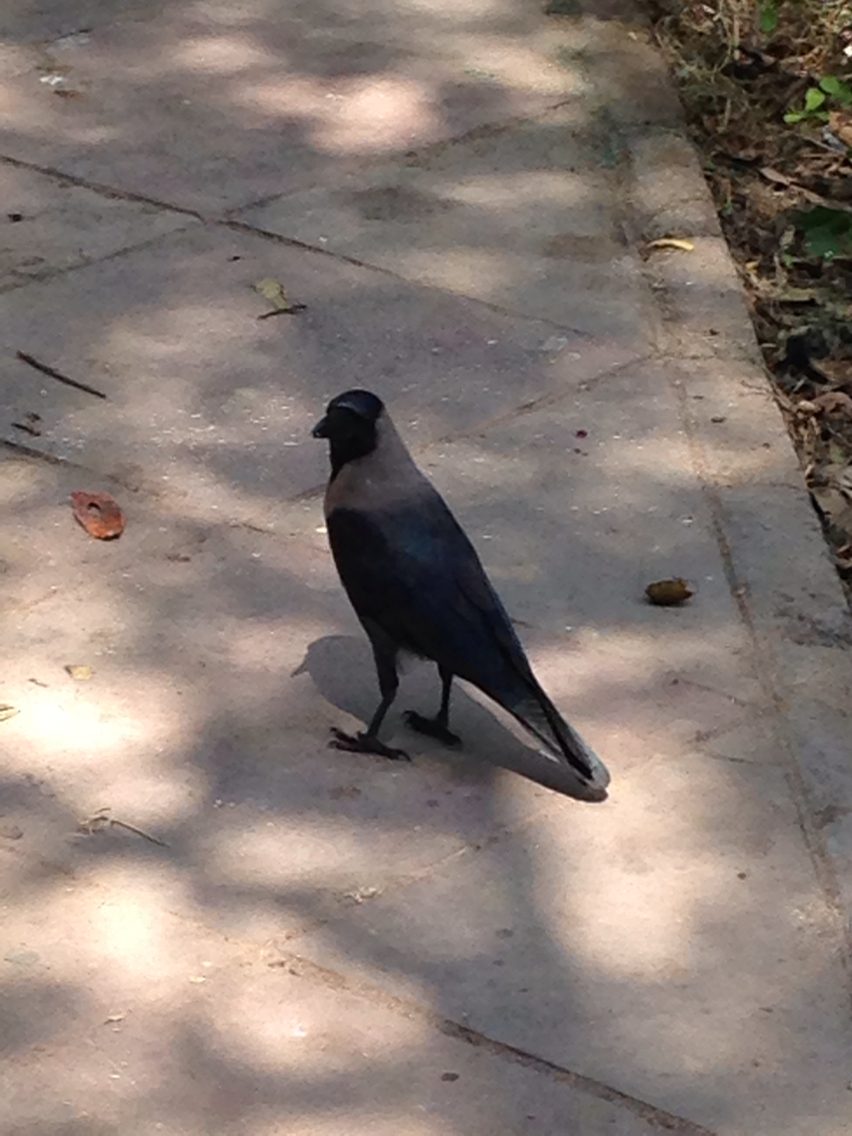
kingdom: Animalia
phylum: Chordata
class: Aves
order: Passeriformes
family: Corvidae
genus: Corvus
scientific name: Corvus splendens
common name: House crow
